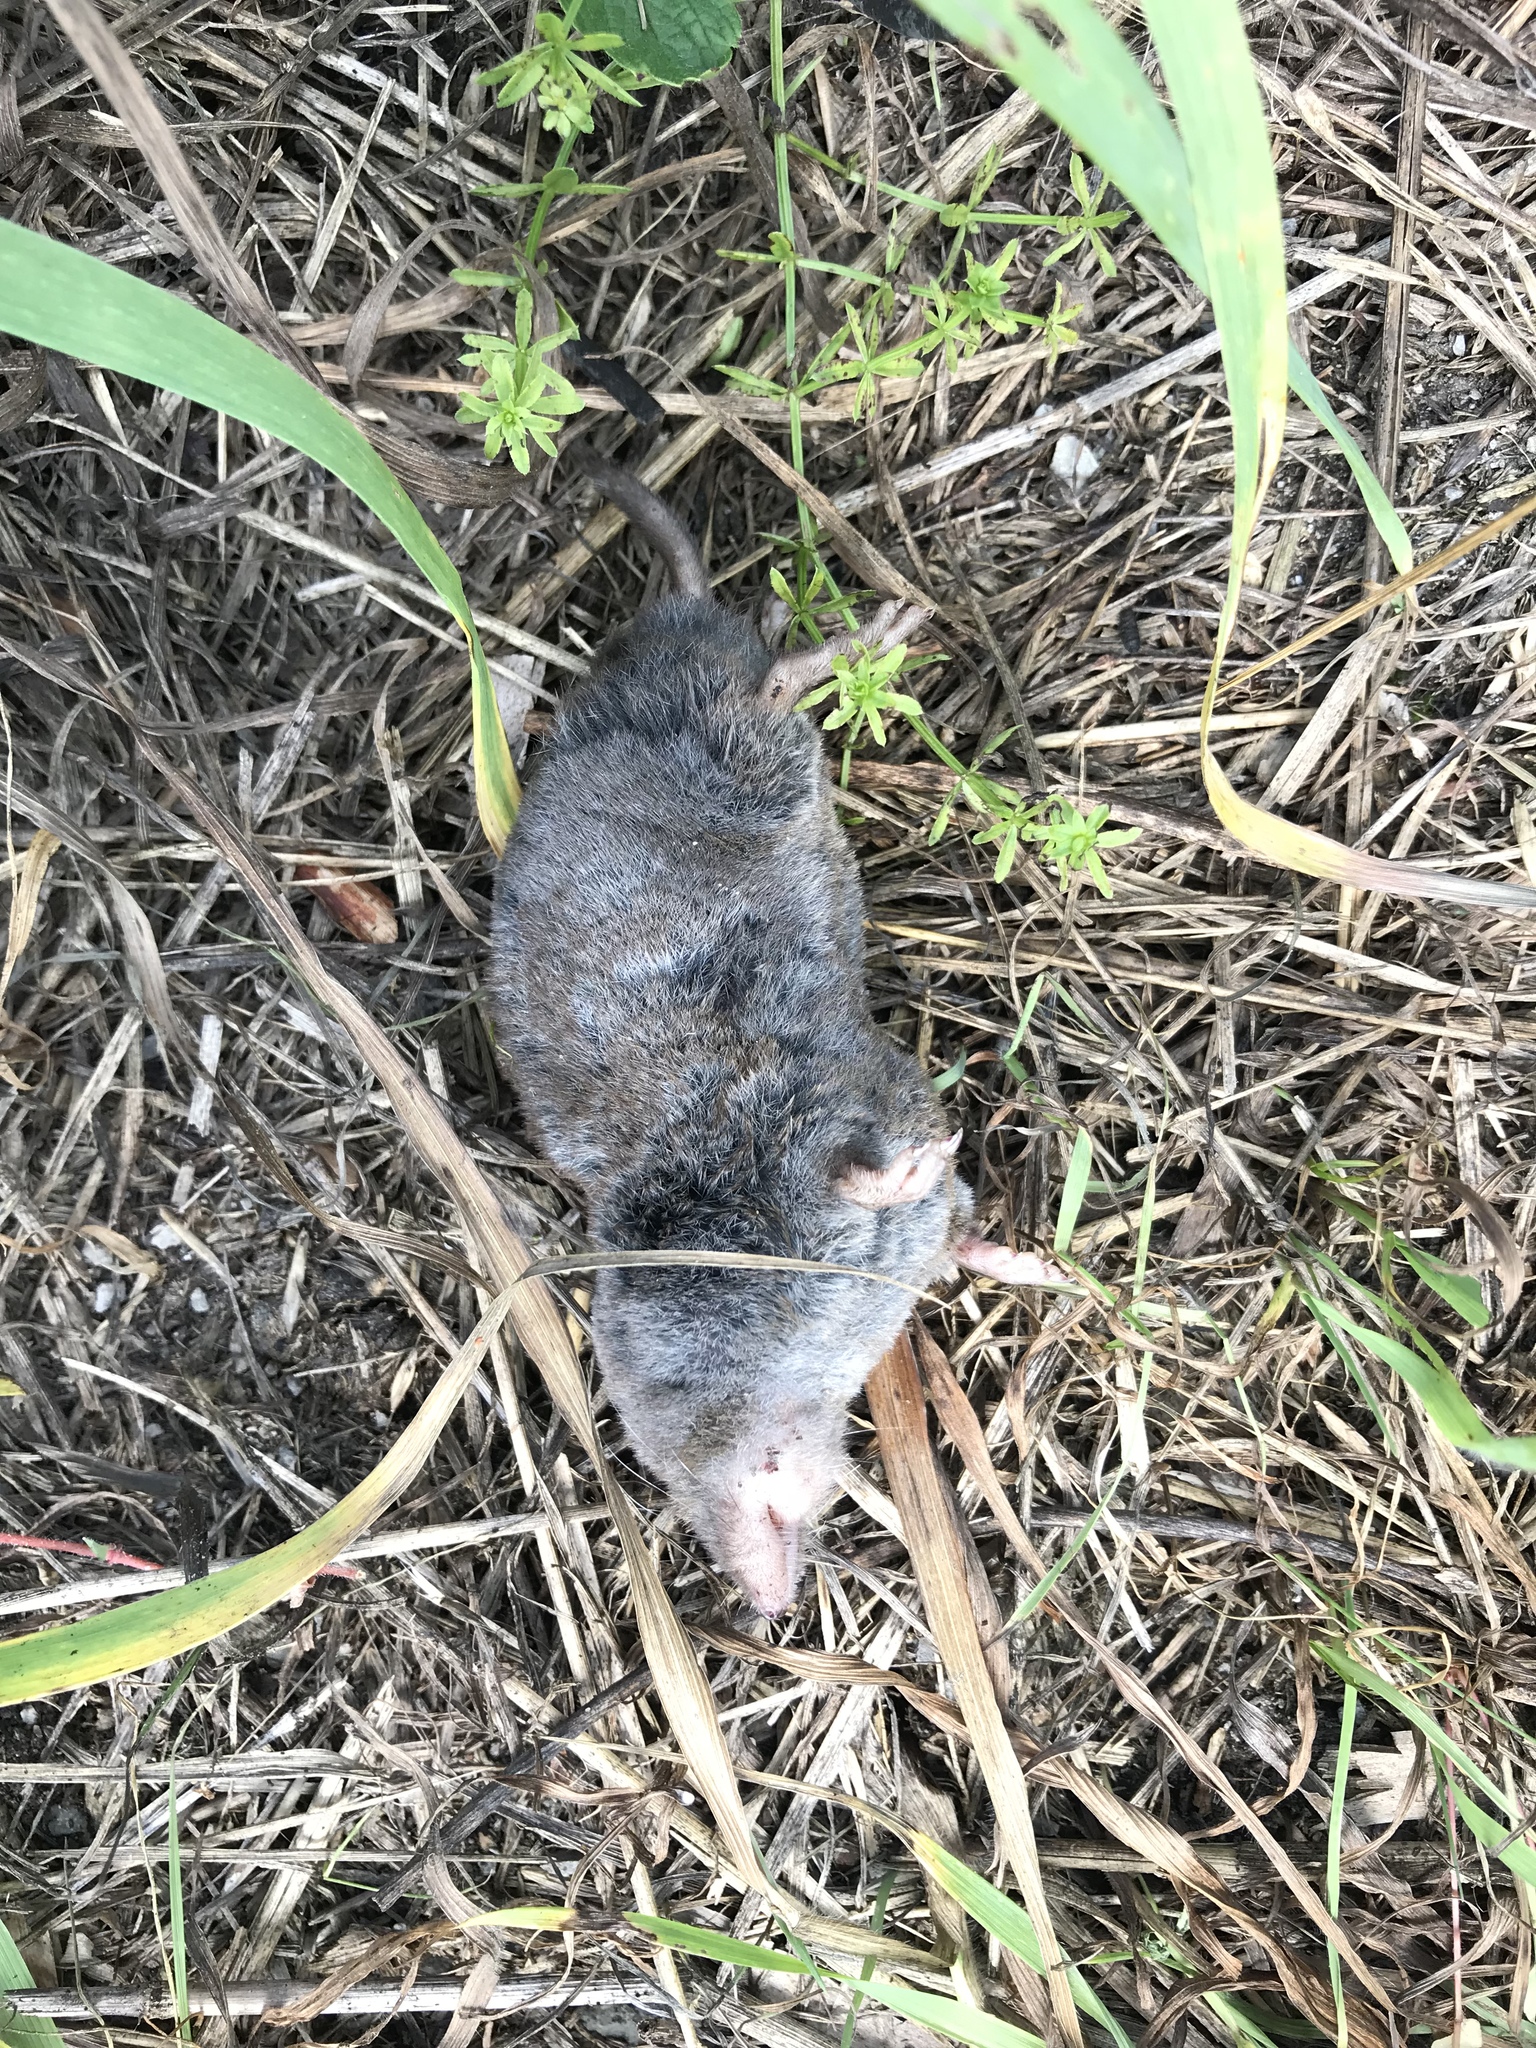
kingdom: Animalia
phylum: Chordata
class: Mammalia
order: Soricomorpha
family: Soricidae
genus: Blarina
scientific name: Blarina brevicauda
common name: Northern short-tailed shrew
